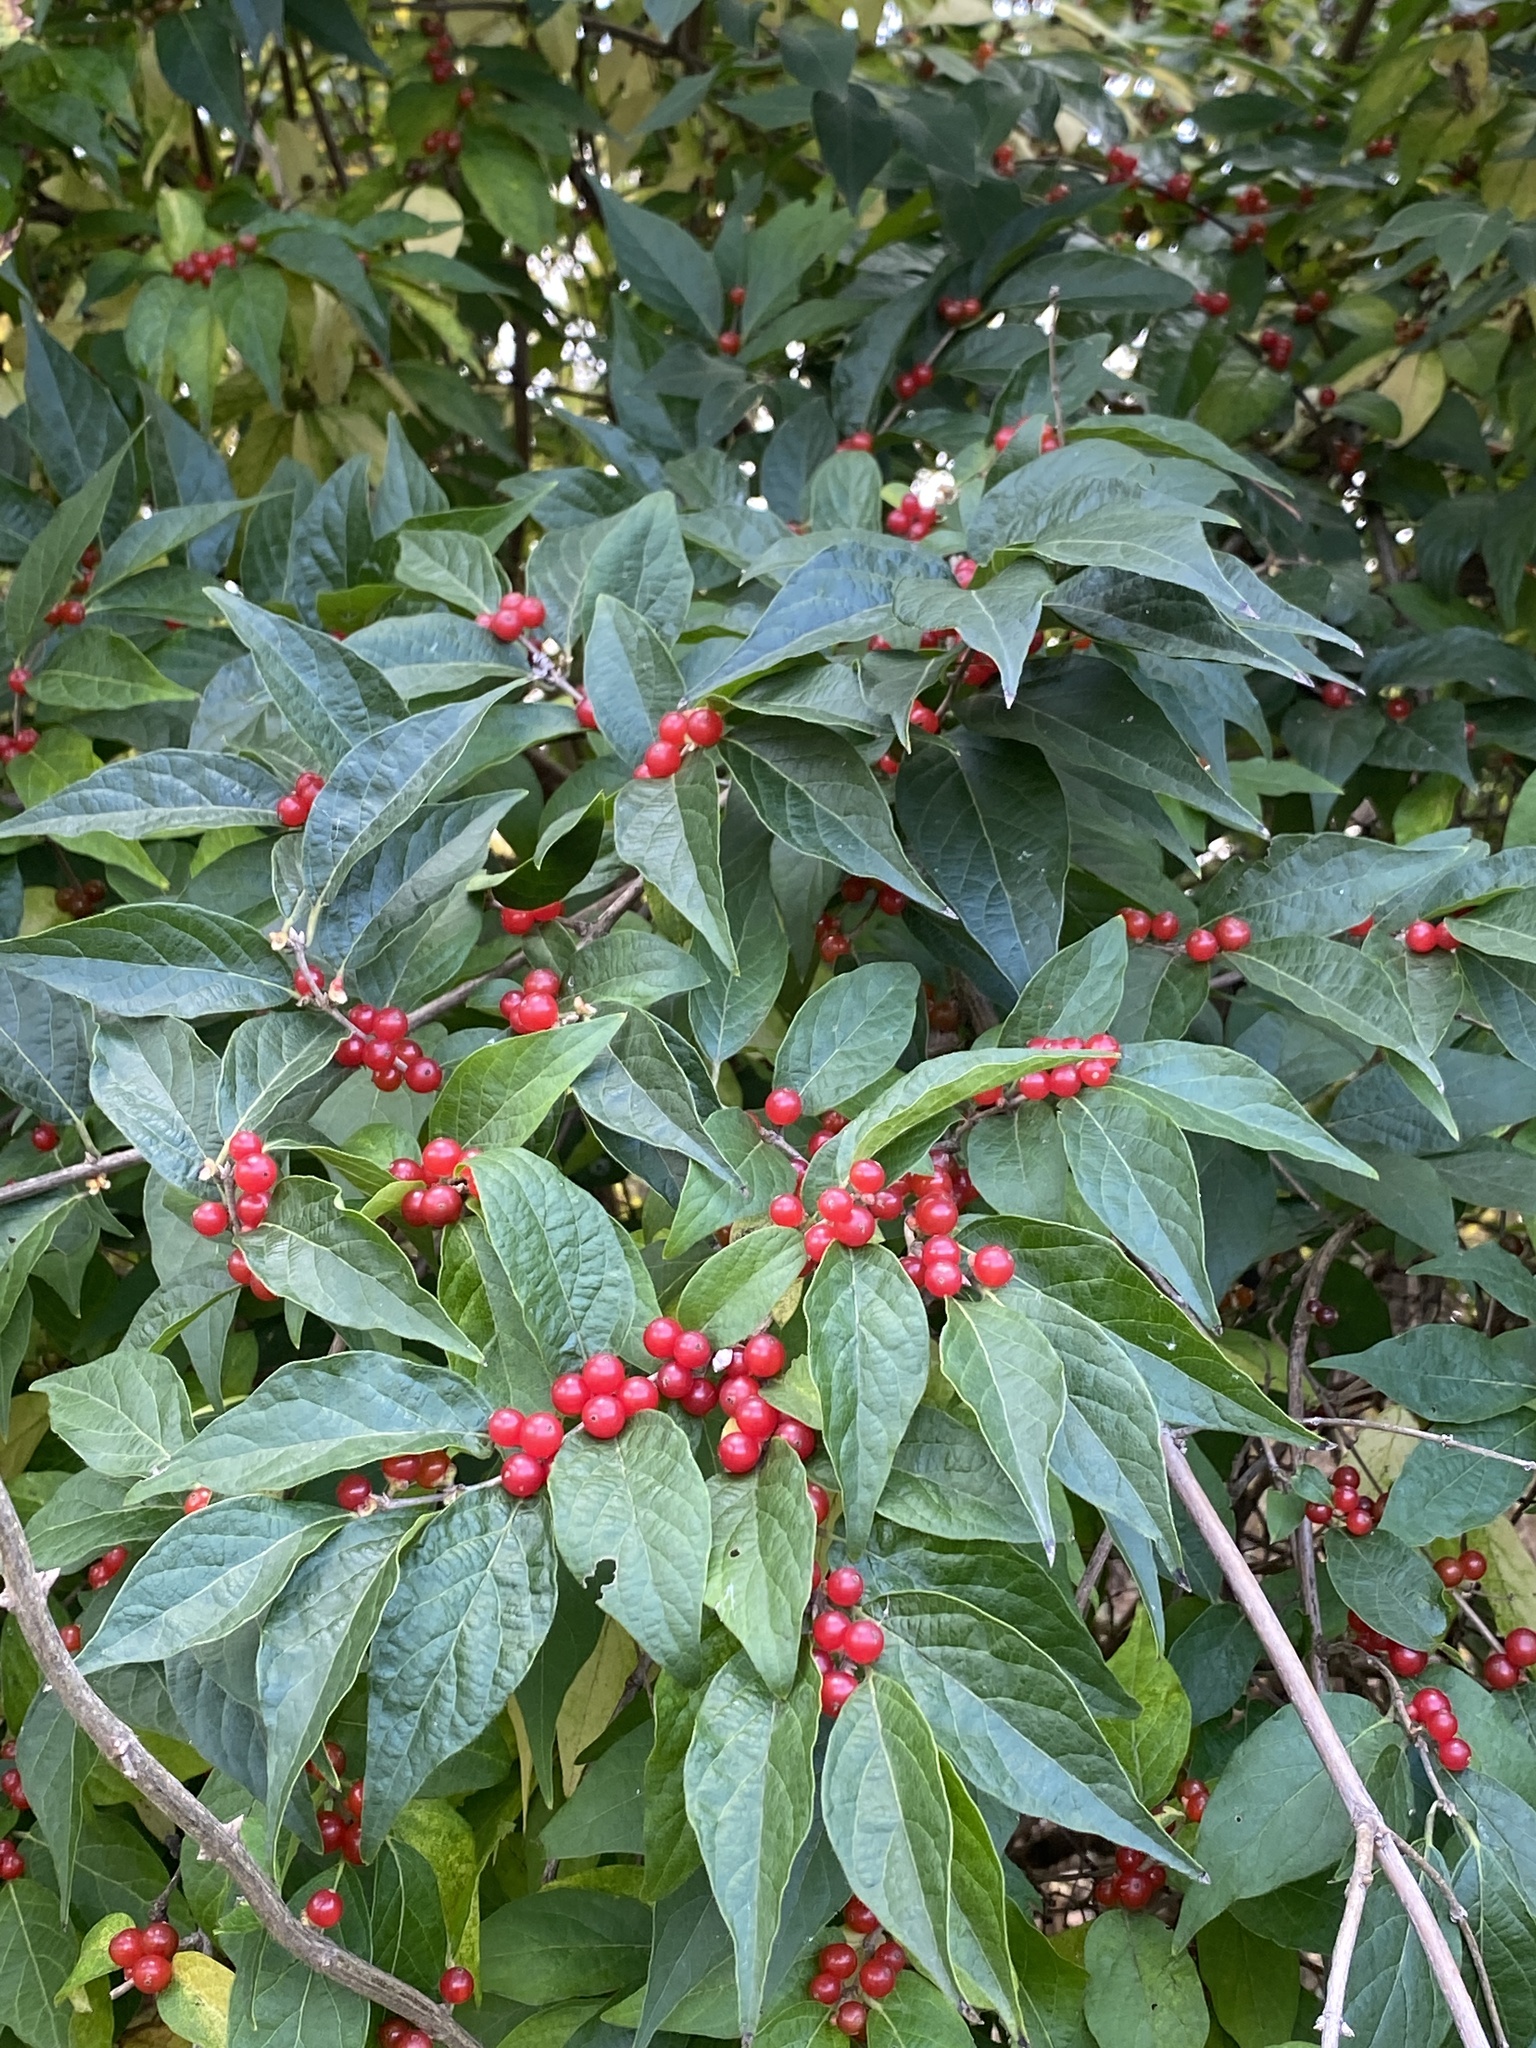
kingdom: Plantae
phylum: Tracheophyta
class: Magnoliopsida
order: Dipsacales
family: Caprifoliaceae
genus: Lonicera
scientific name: Lonicera maackii
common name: Amur honeysuckle
